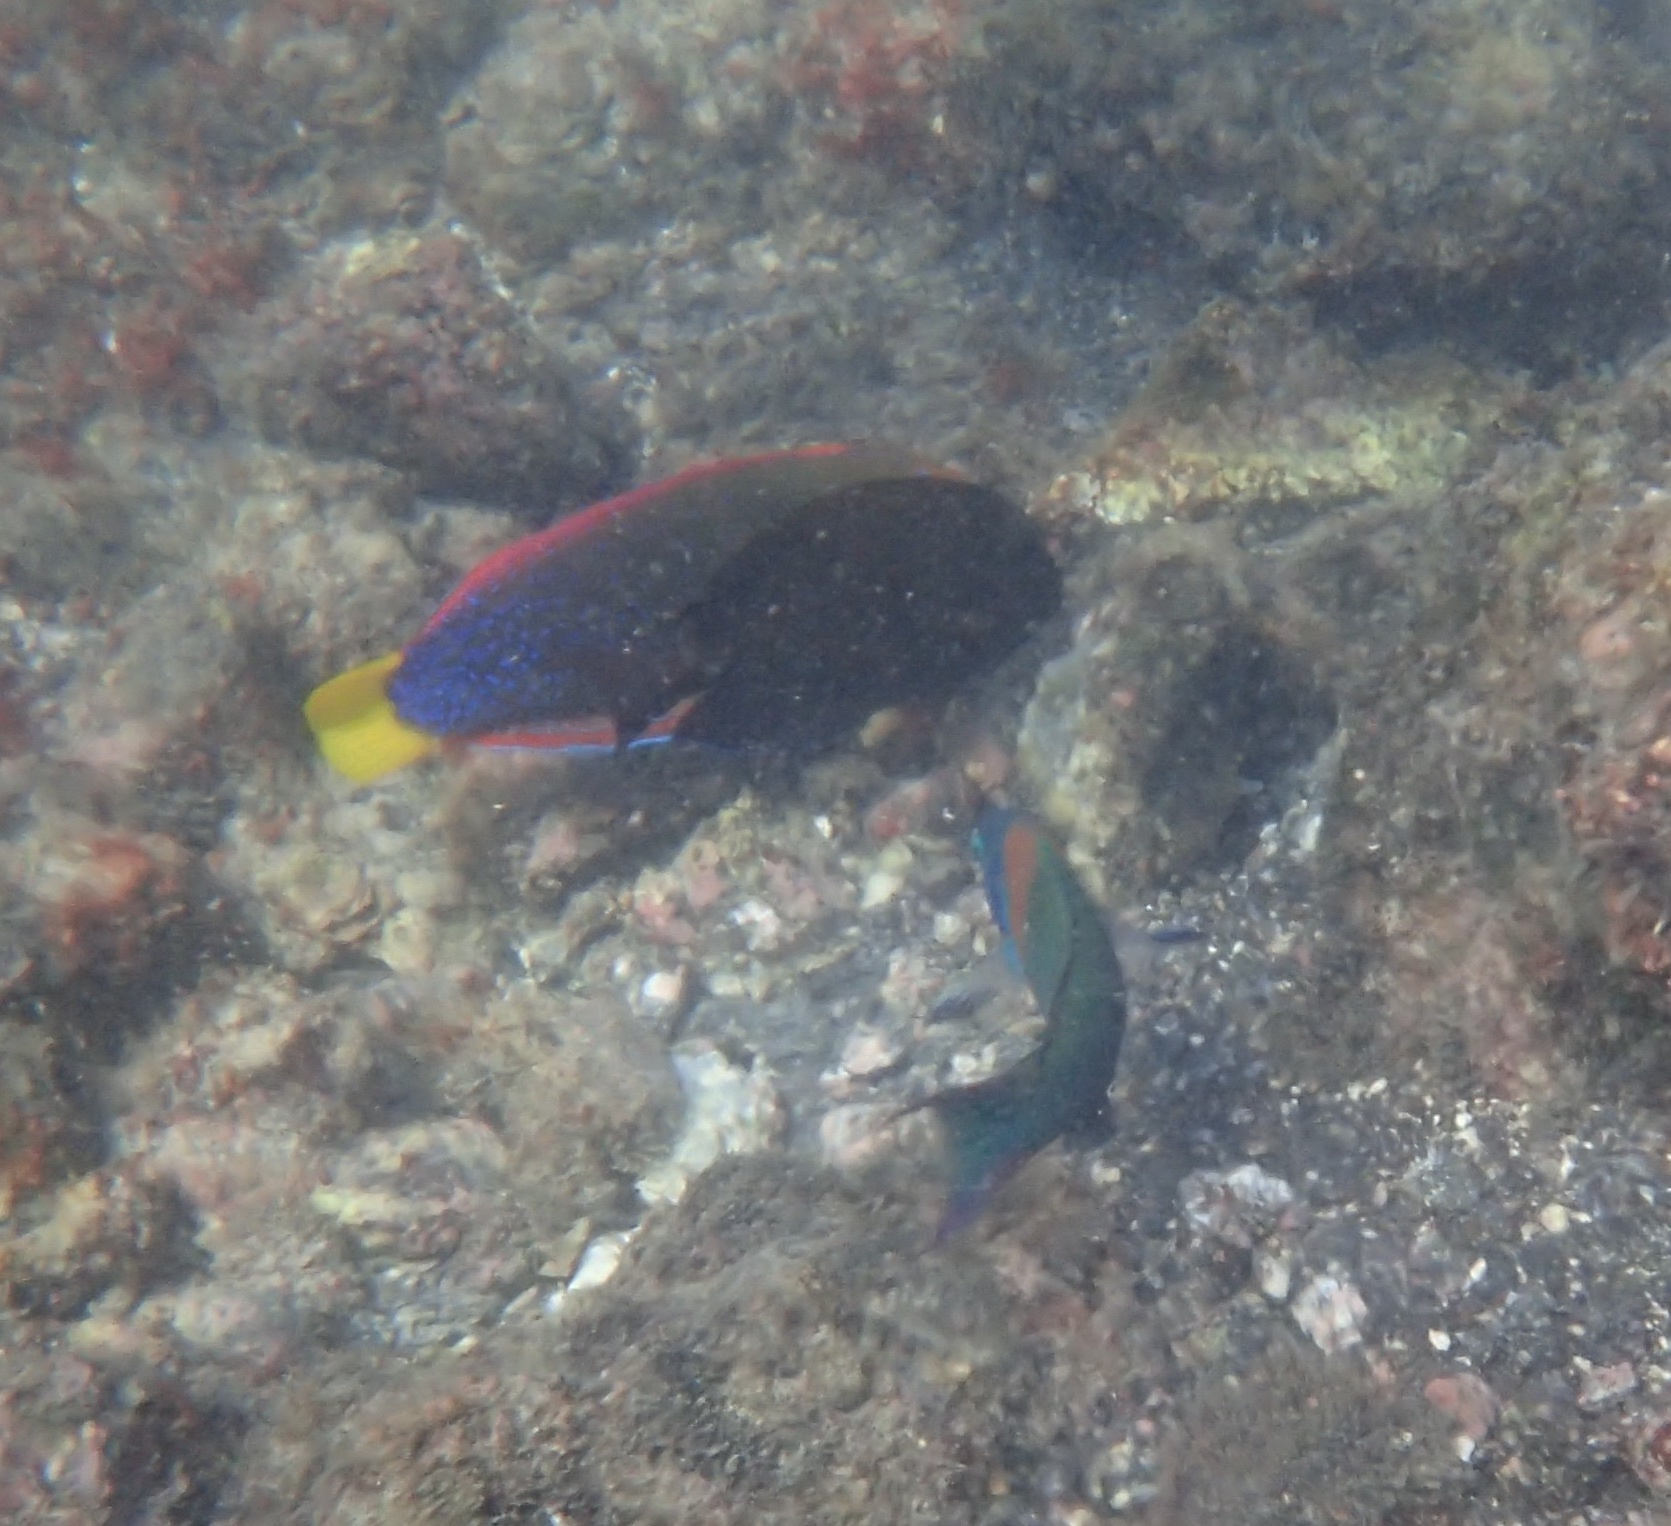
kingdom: Animalia
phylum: Chordata
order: Perciformes
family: Labridae
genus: Coris
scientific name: Coris gaimard
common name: Yellowtail coris
